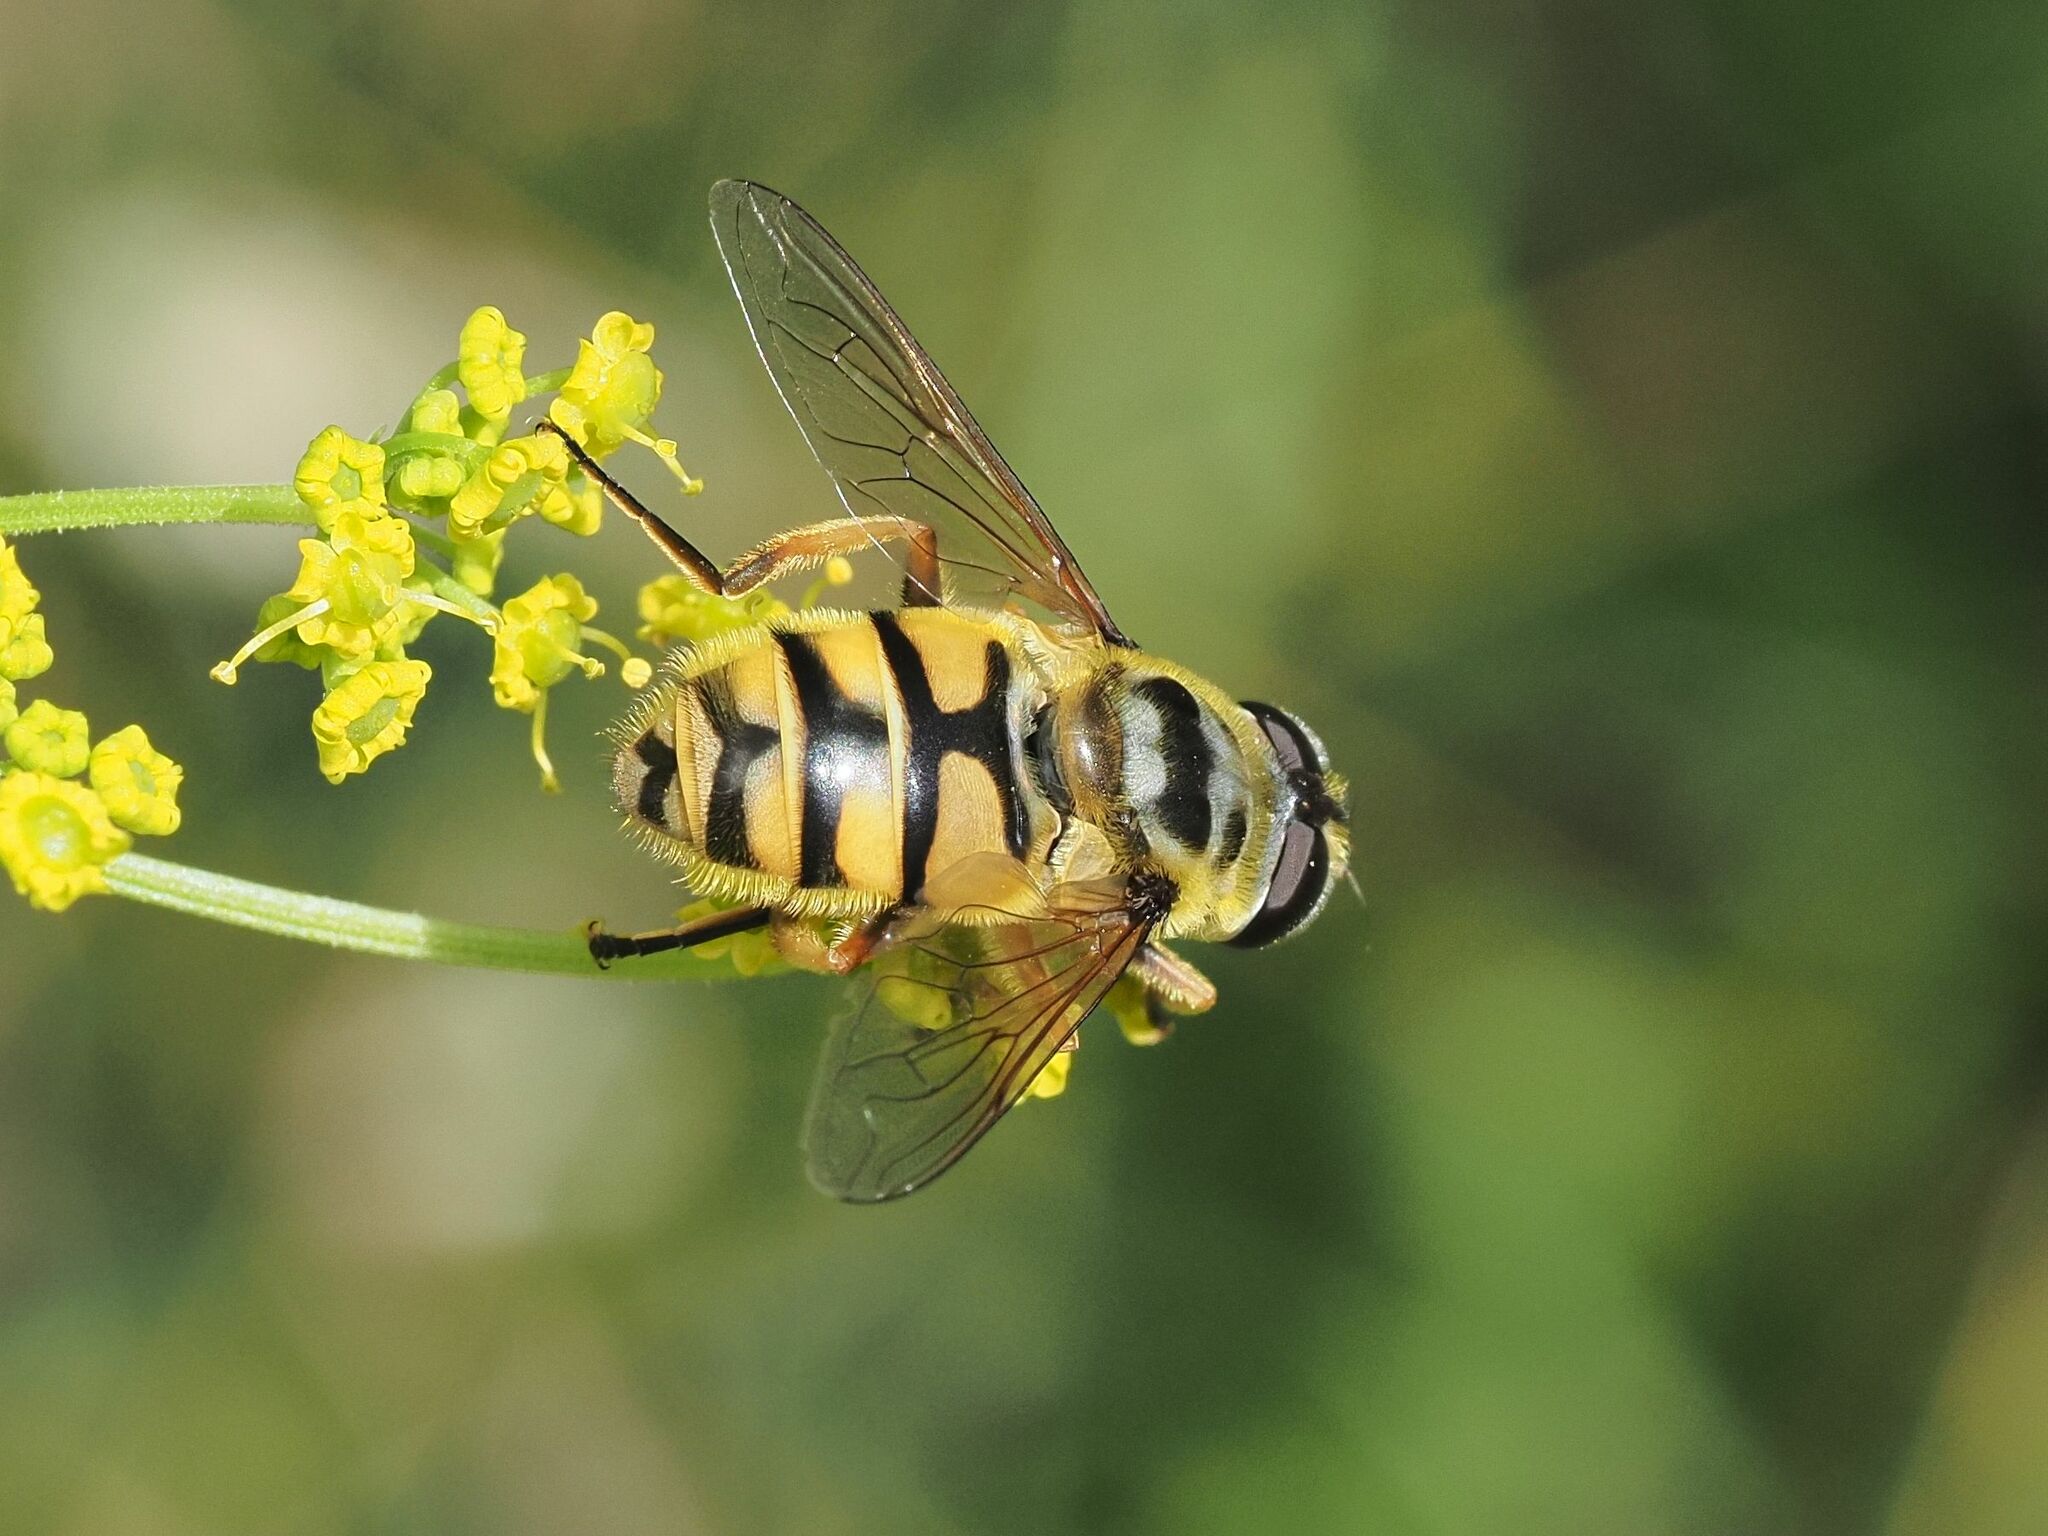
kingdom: Animalia
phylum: Arthropoda
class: Insecta
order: Diptera
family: Syrphidae
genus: Myathropa
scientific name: Myathropa florea
